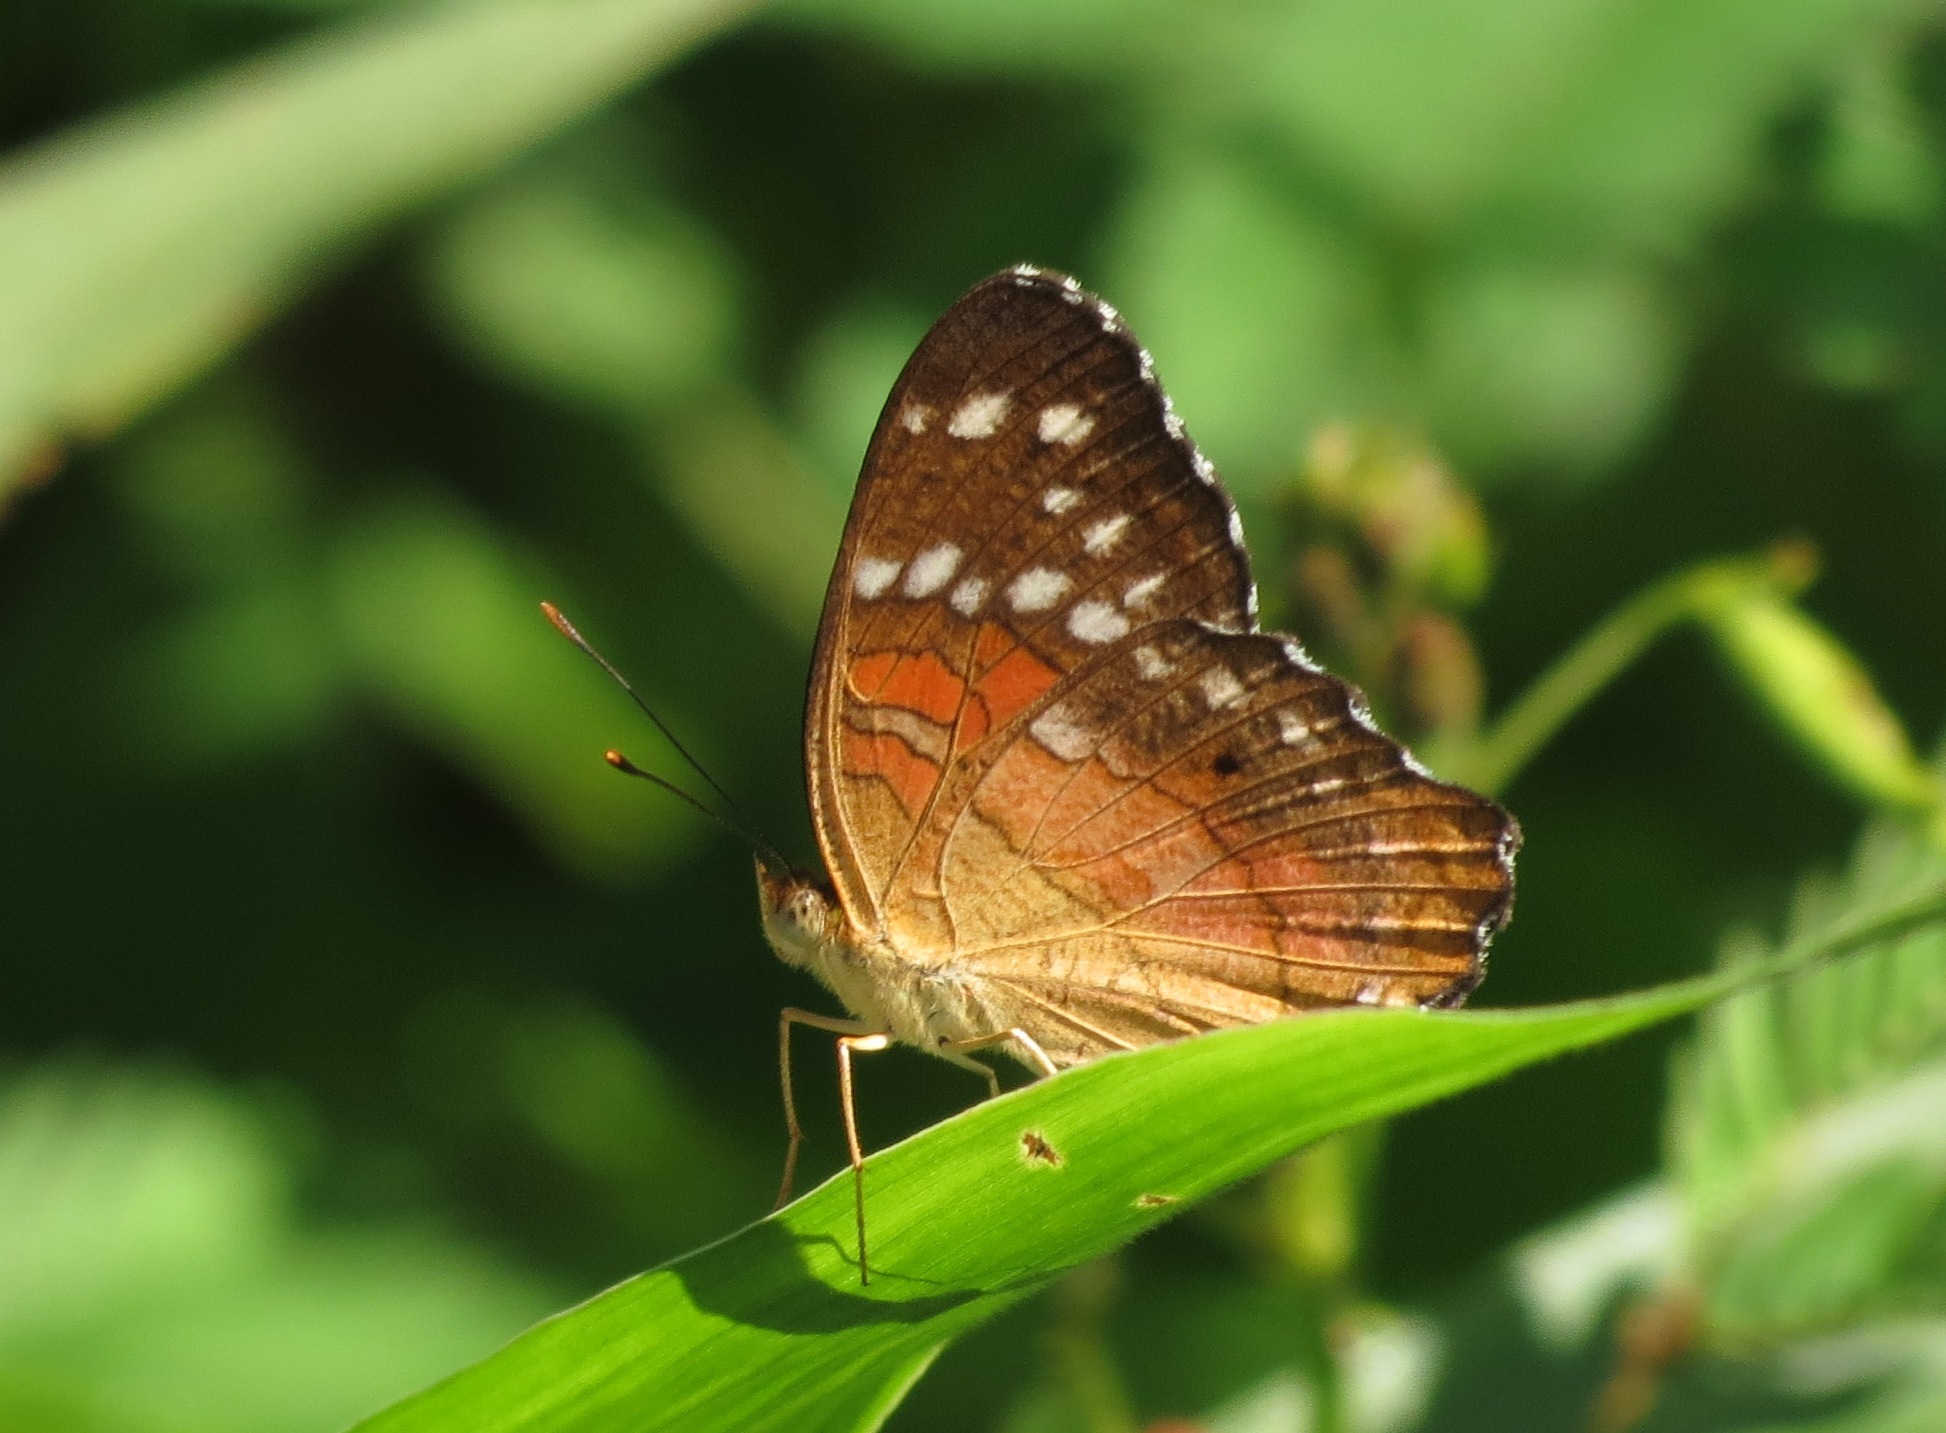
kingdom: Animalia
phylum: Arthropoda
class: Insecta
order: Lepidoptera
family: Nymphalidae
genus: Anartia
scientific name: Anartia amathea
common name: Red peacock
